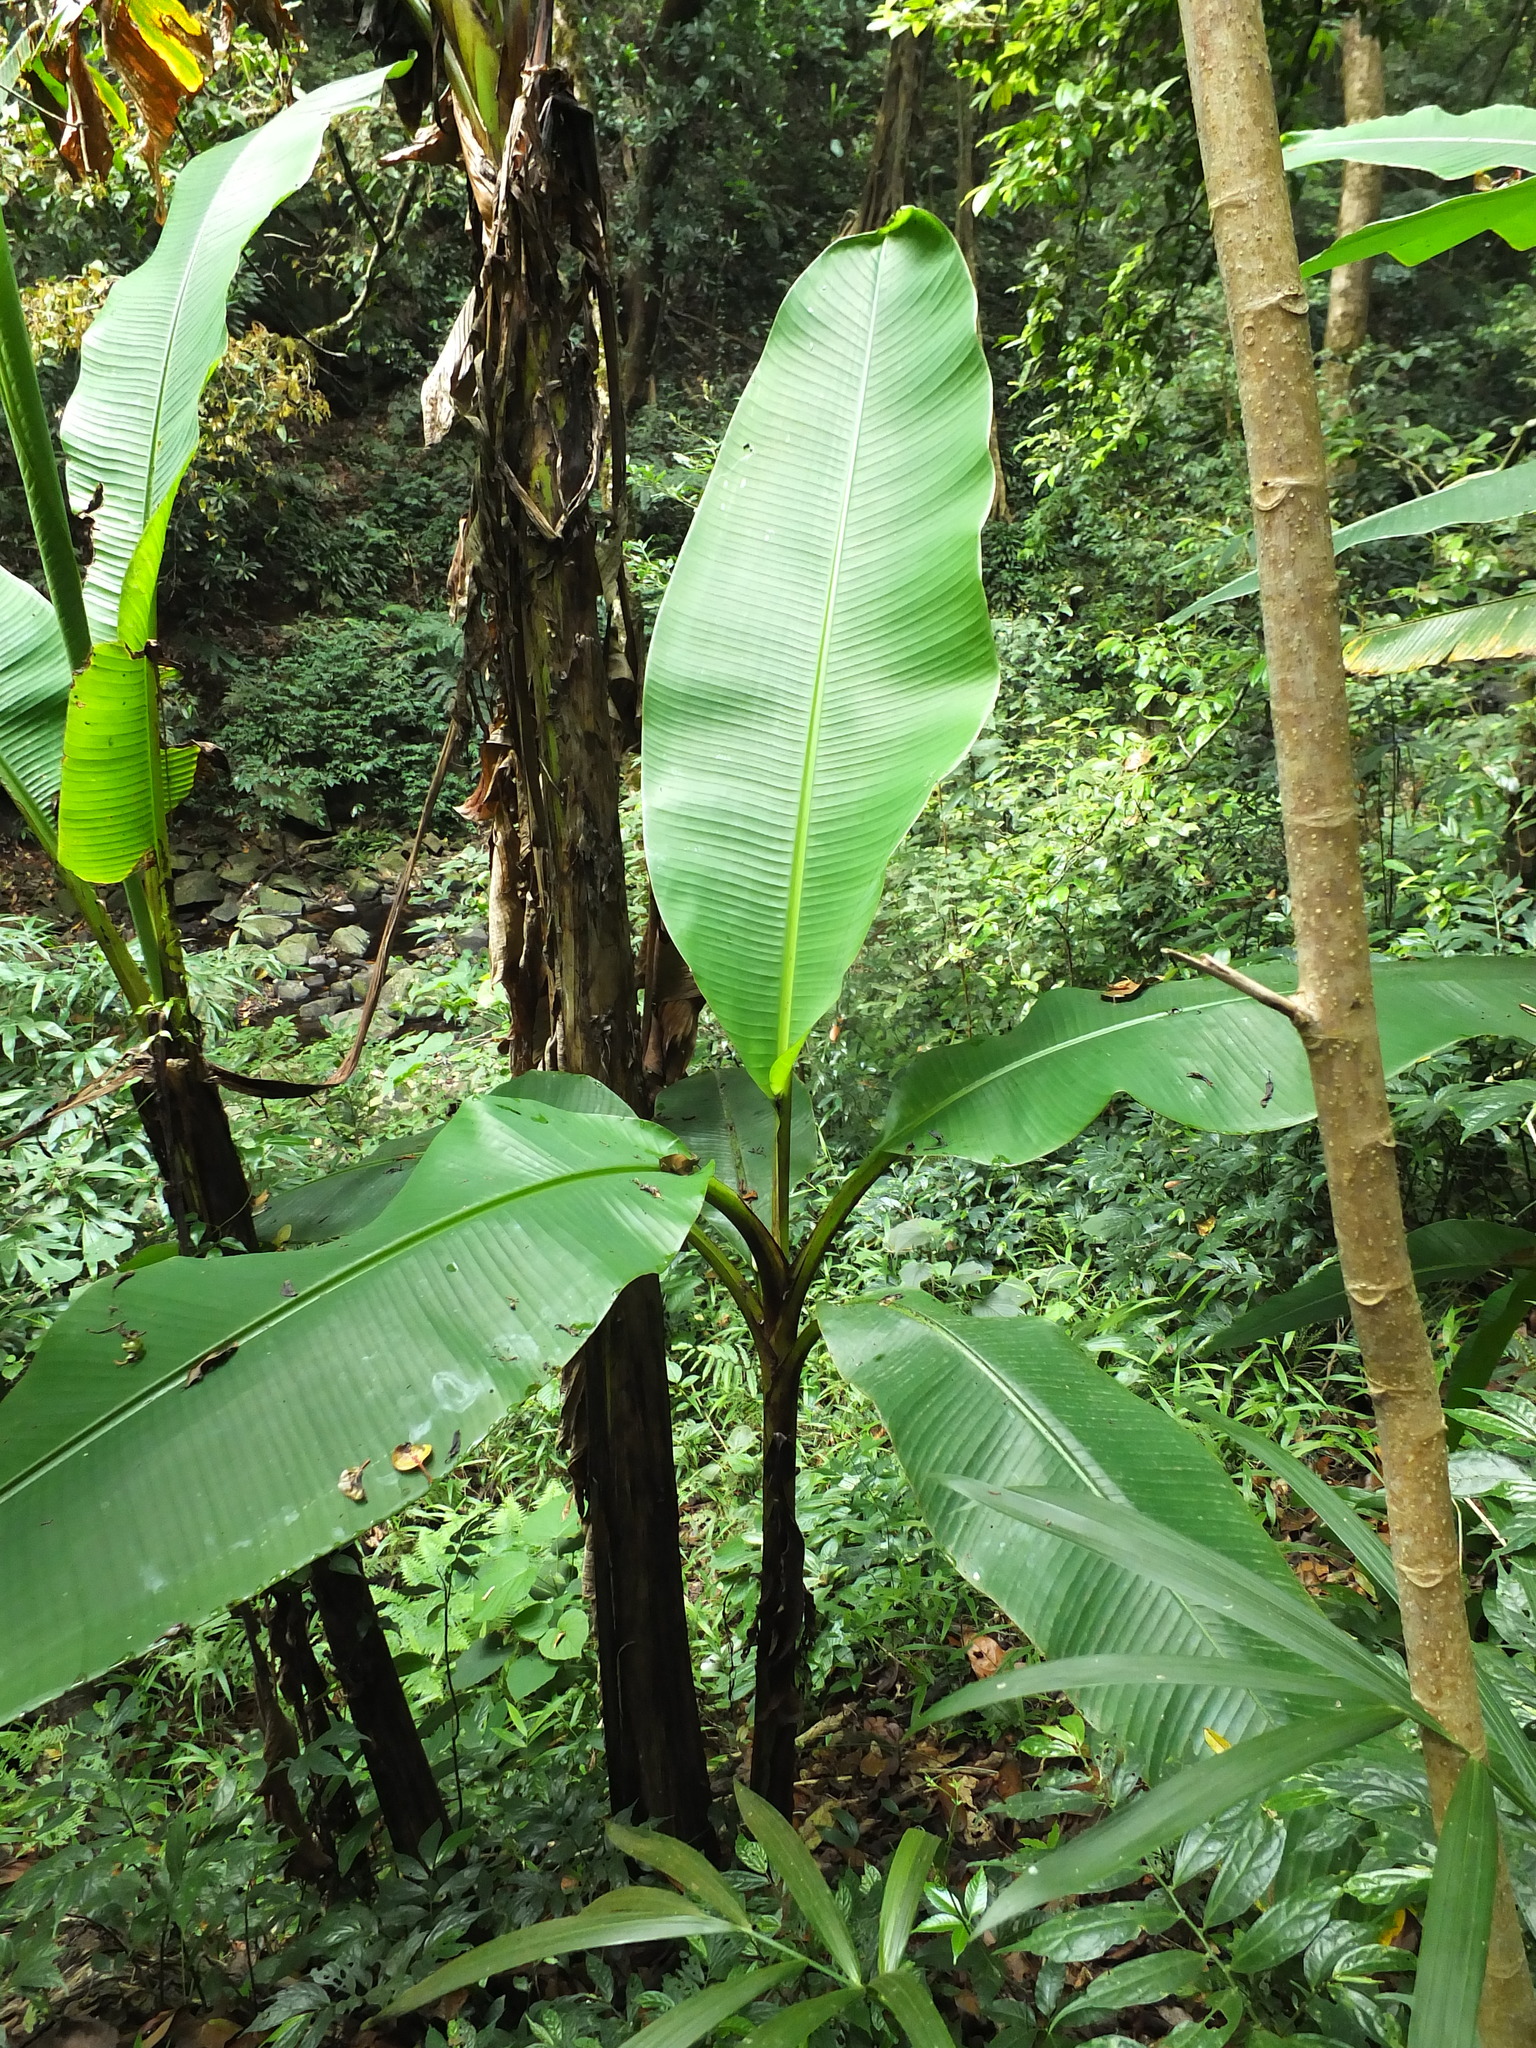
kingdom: Plantae
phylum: Tracheophyta
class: Liliopsida
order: Zingiberales
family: Musaceae
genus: Ensete
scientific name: Ensete superbum
